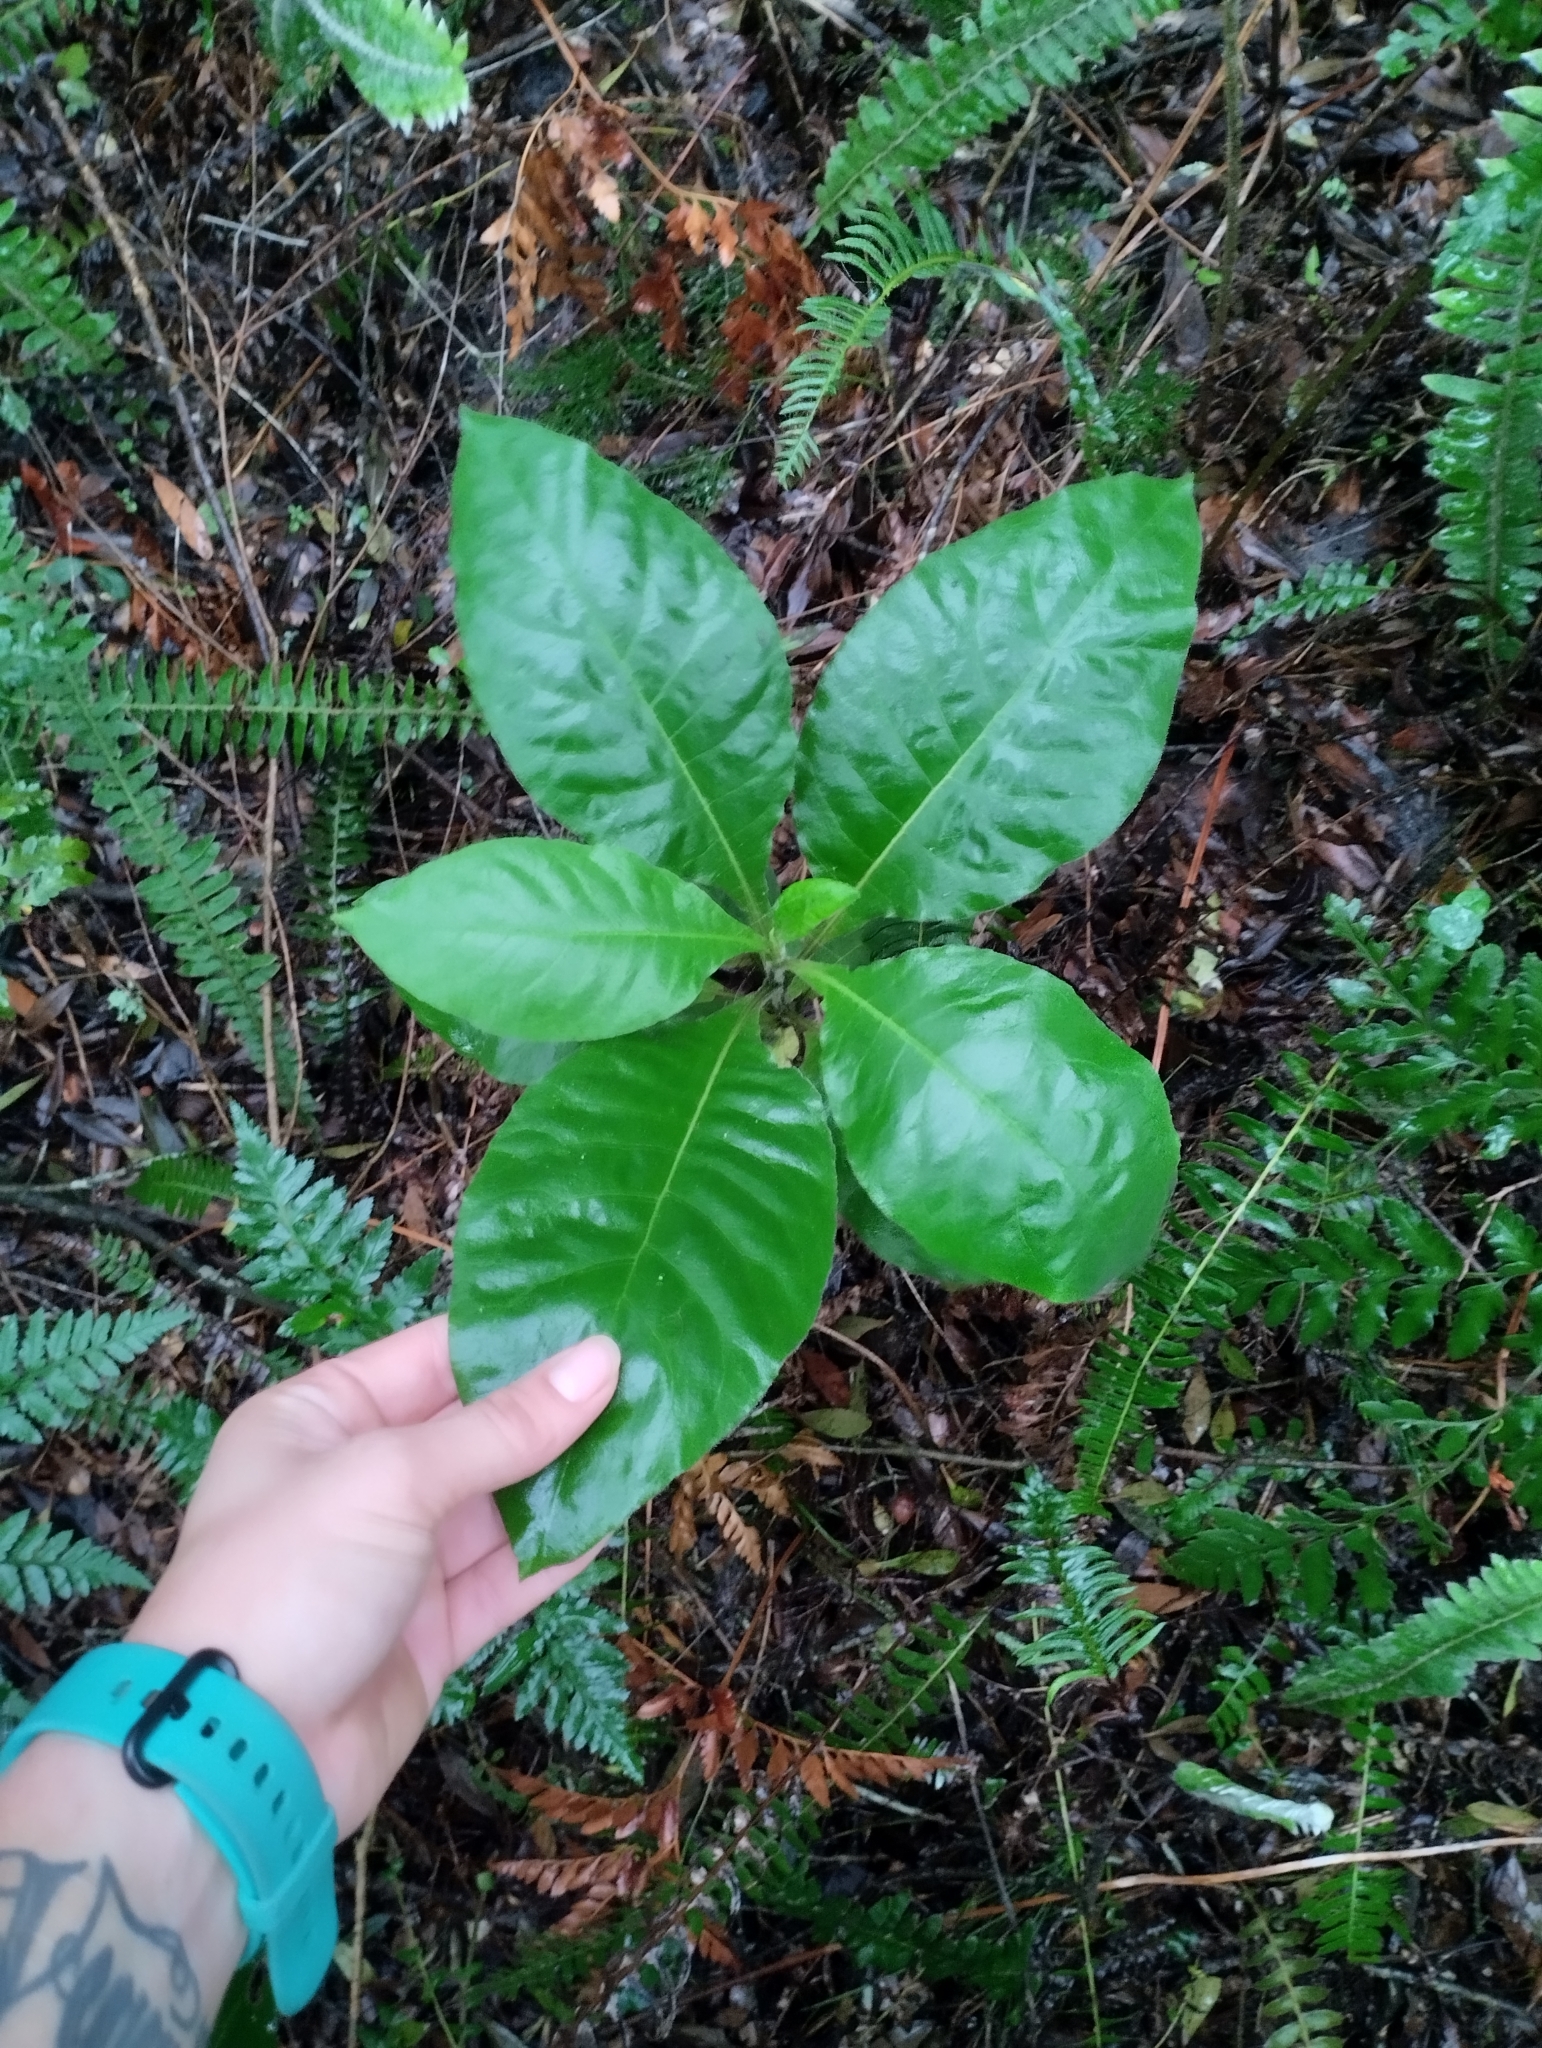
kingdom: Plantae
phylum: Tracheophyta
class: Magnoliopsida
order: Asterales
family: Asteraceae
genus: Trixis
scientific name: Trixis praestans
